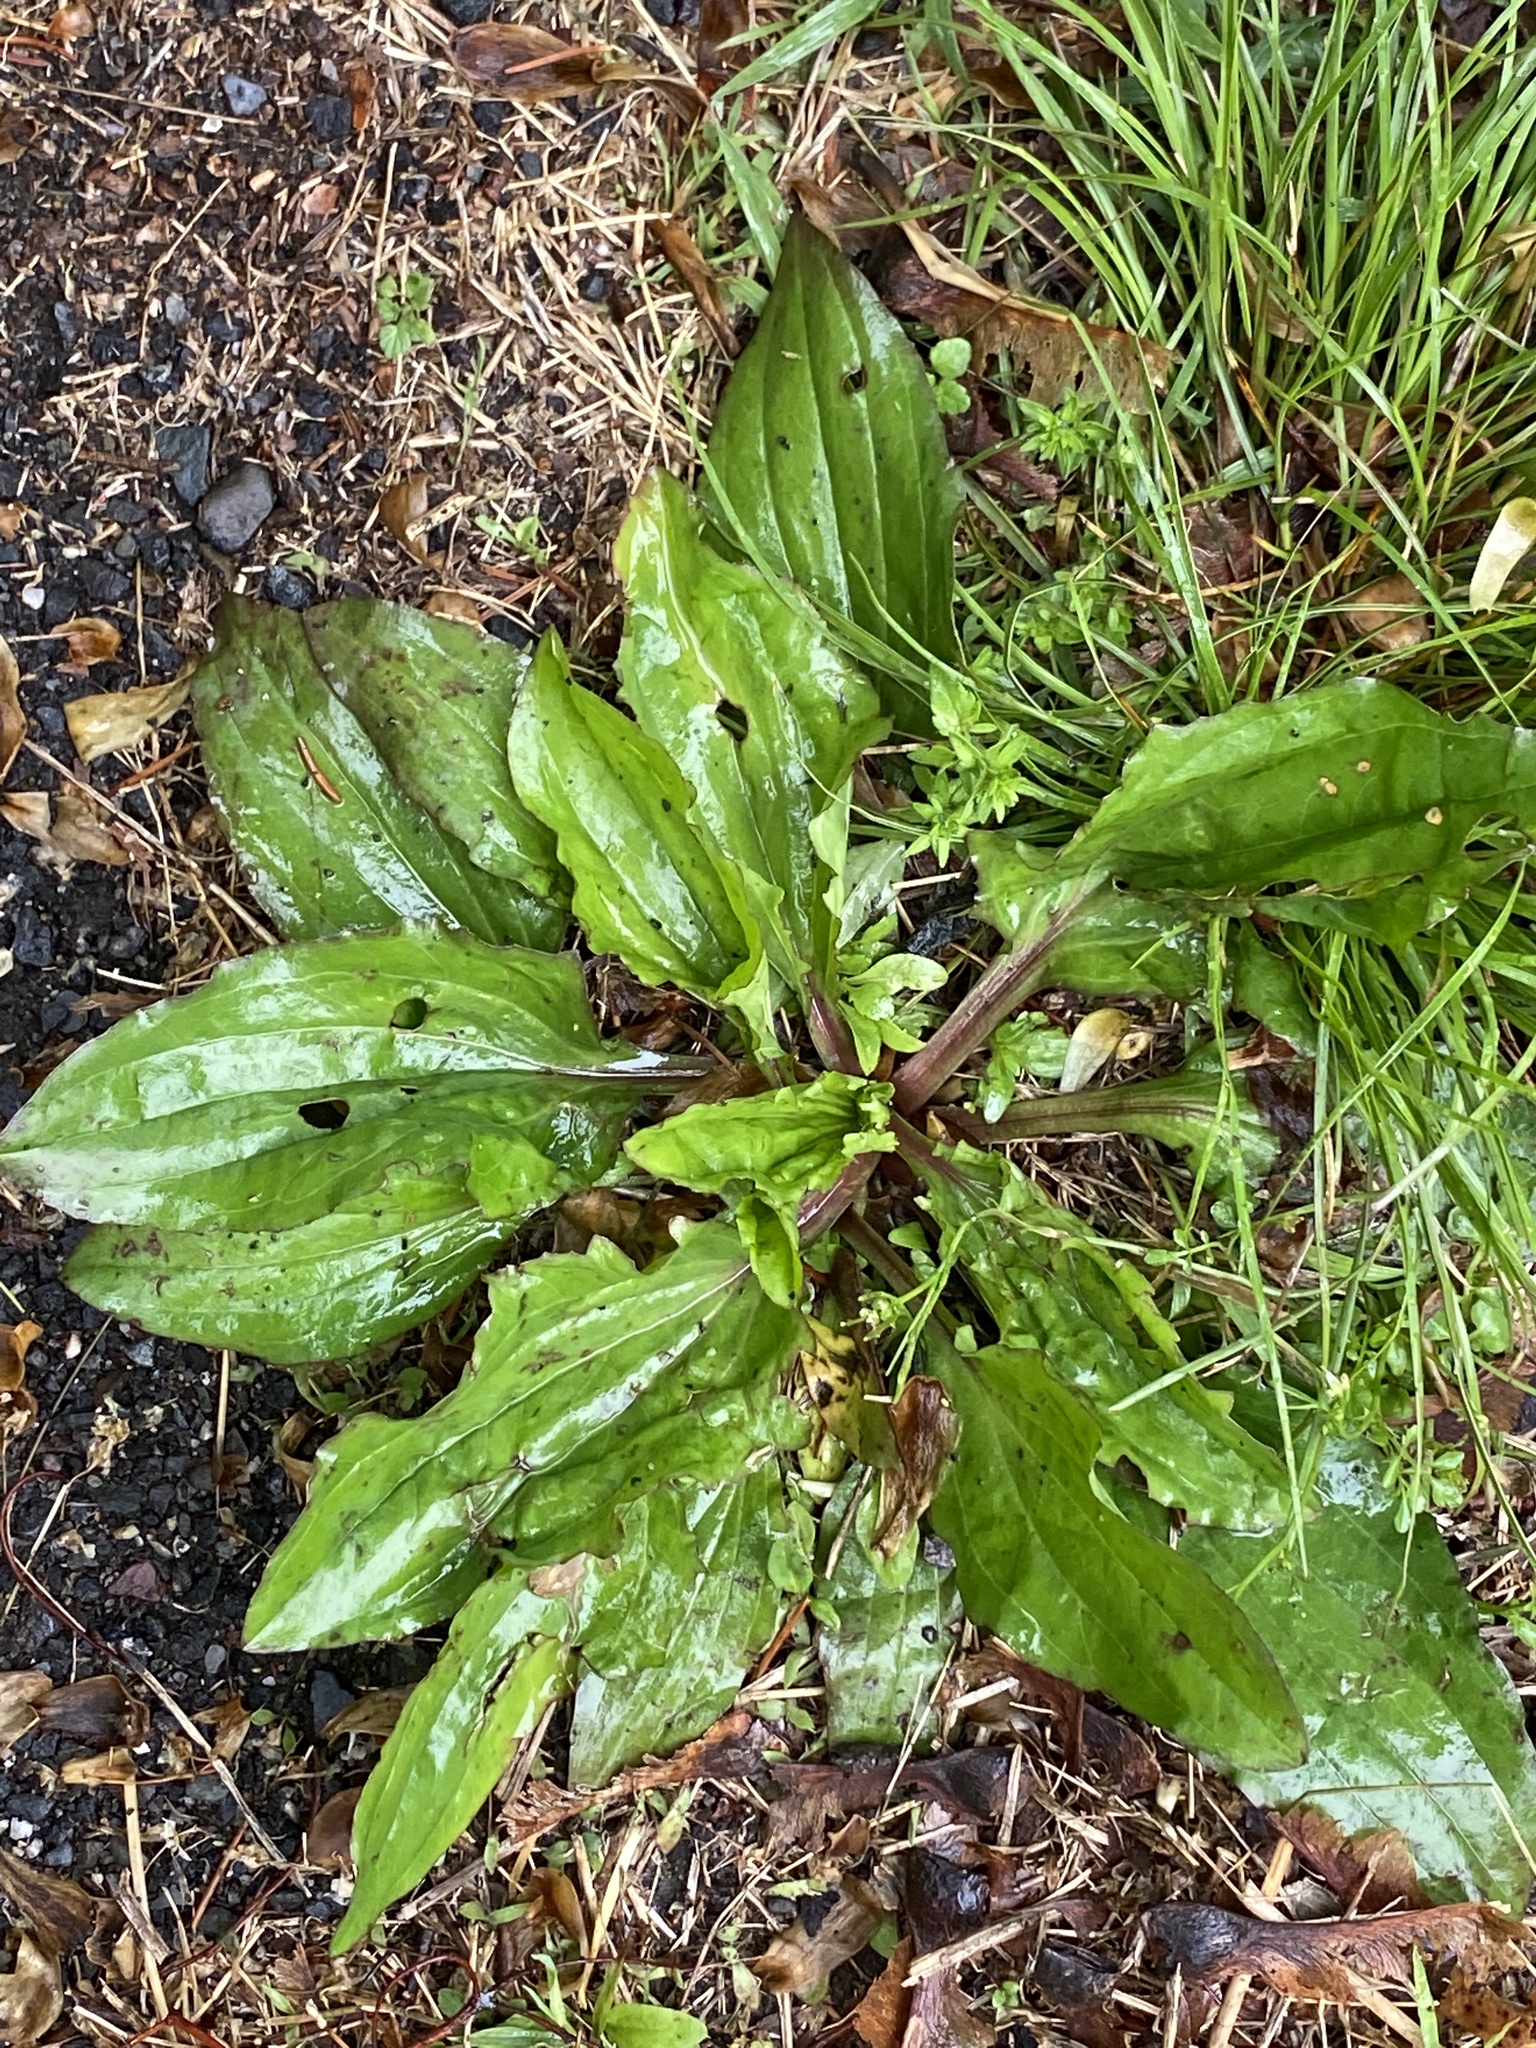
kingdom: Plantae
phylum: Tracheophyta
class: Magnoliopsida
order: Lamiales
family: Plantaginaceae
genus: Plantago
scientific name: Plantago rugelii
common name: American plantain
